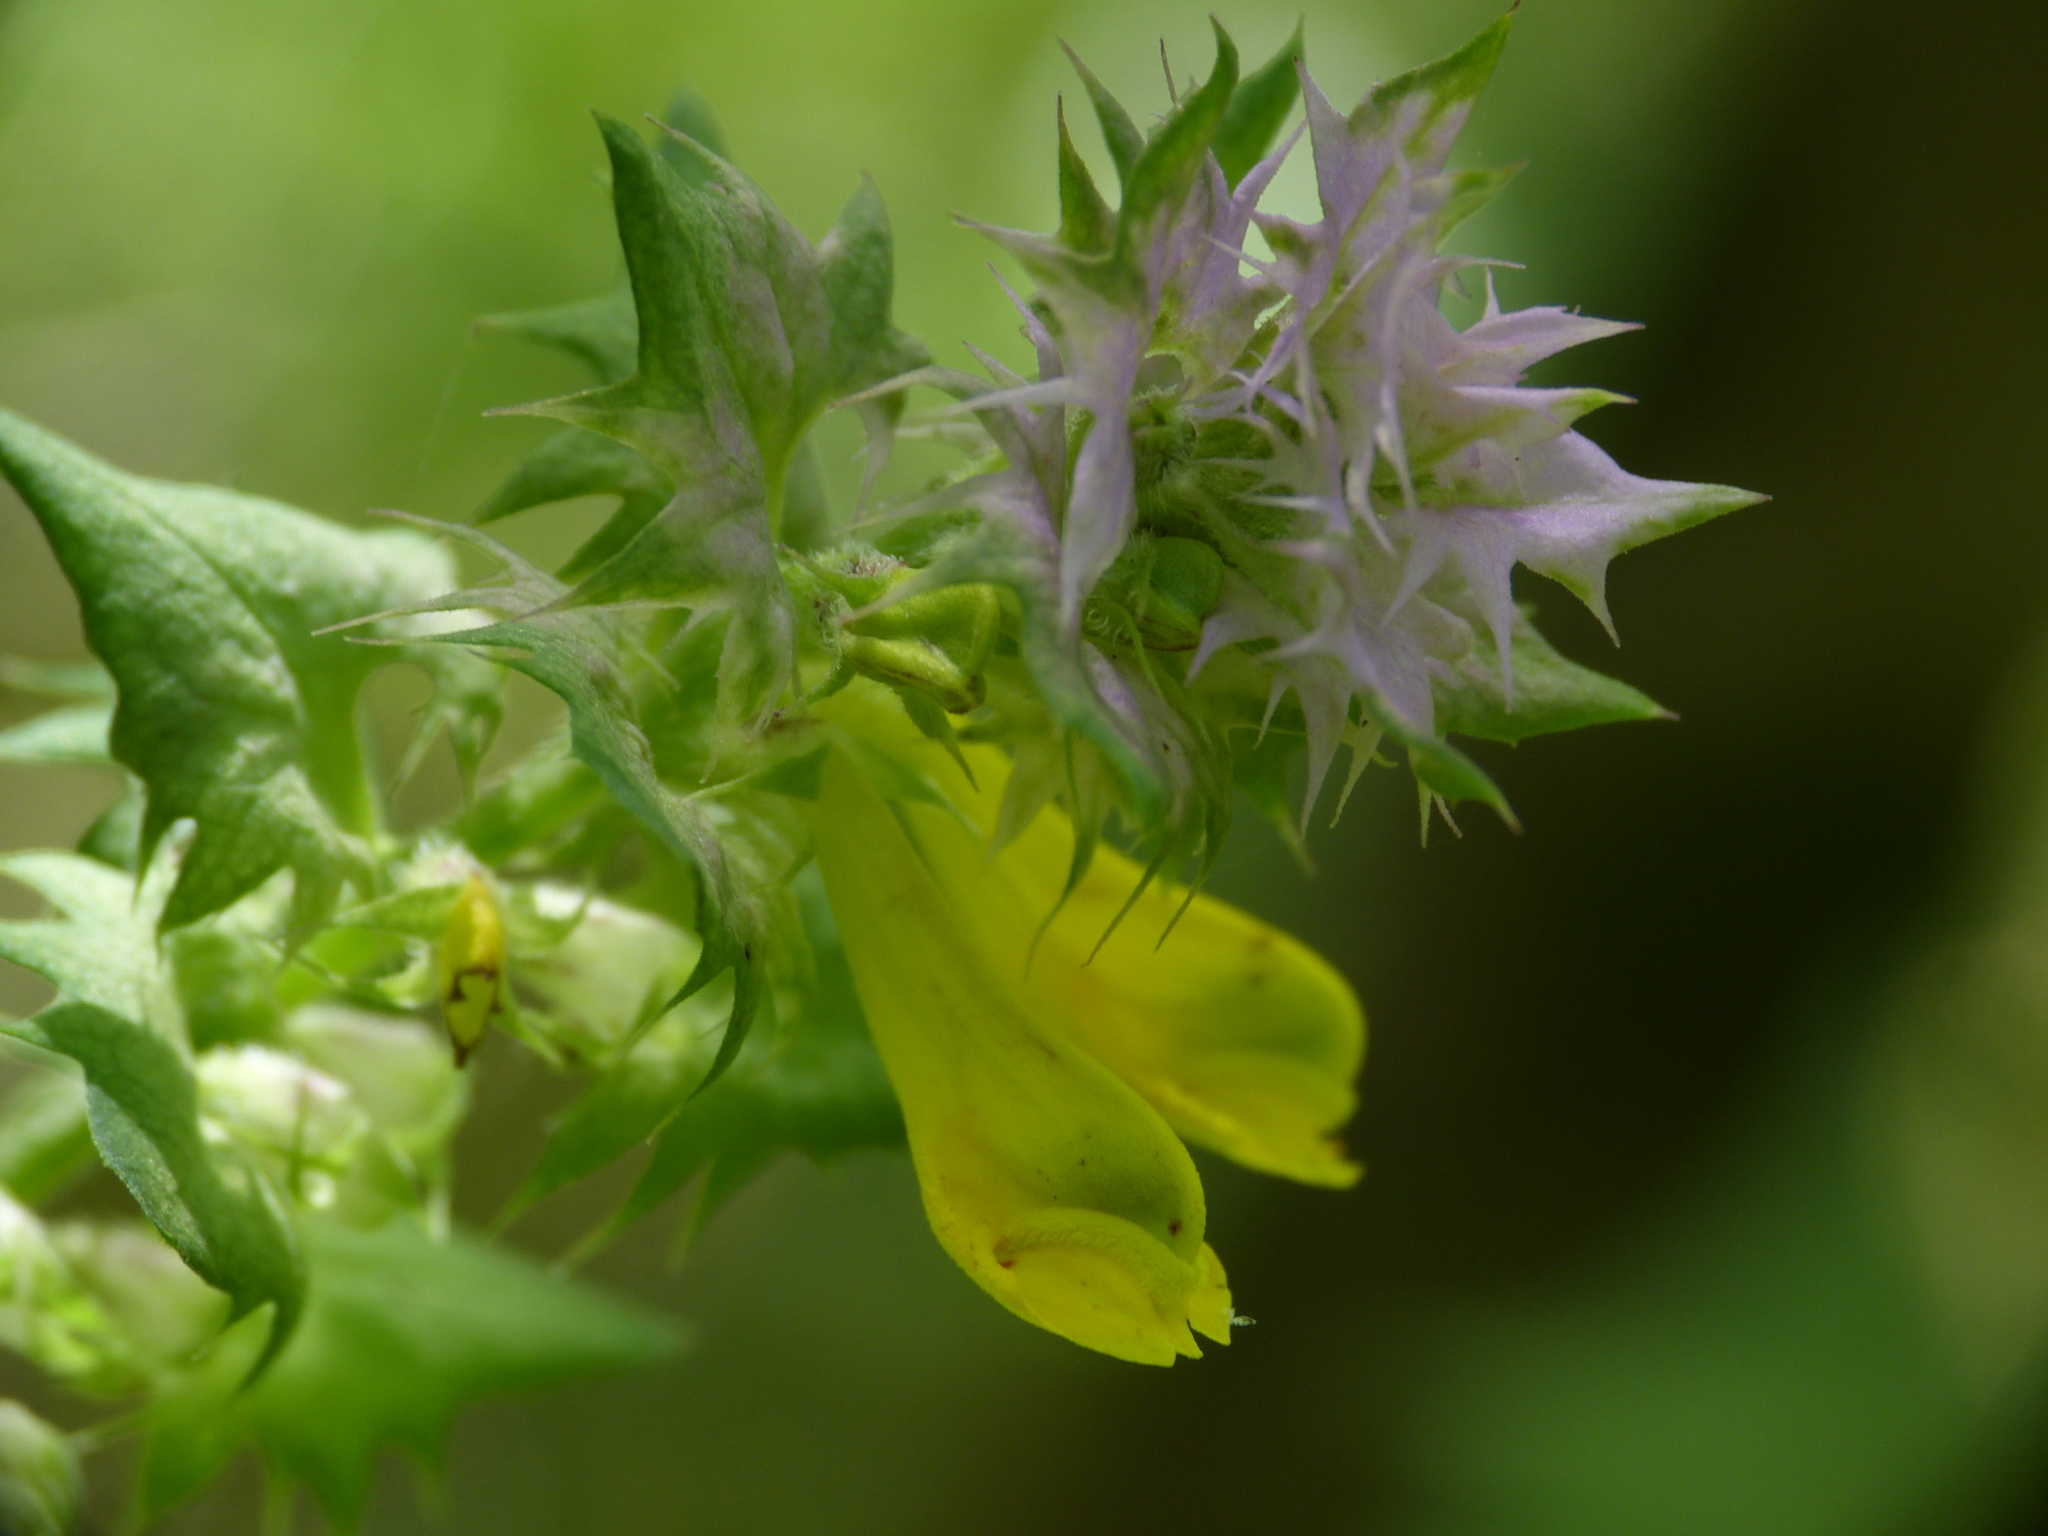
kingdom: Plantae
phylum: Tracheophyta
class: Magnoliopsida
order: Lamiales
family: Orobanchaceae
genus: Melampyrum
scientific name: Melampyrum catalaunicum
